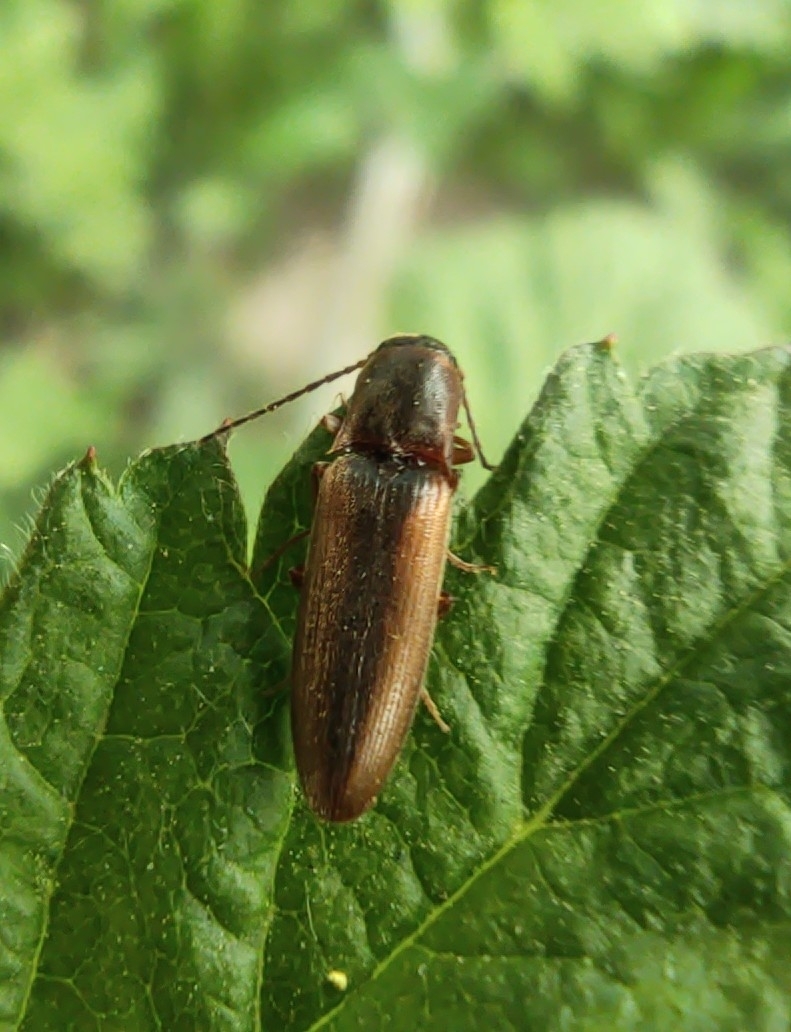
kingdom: Animalia
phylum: Arthropoda
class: Insecta
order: Coleoptera
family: Elateridae
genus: Dalopius
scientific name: Dalopius marginatus
